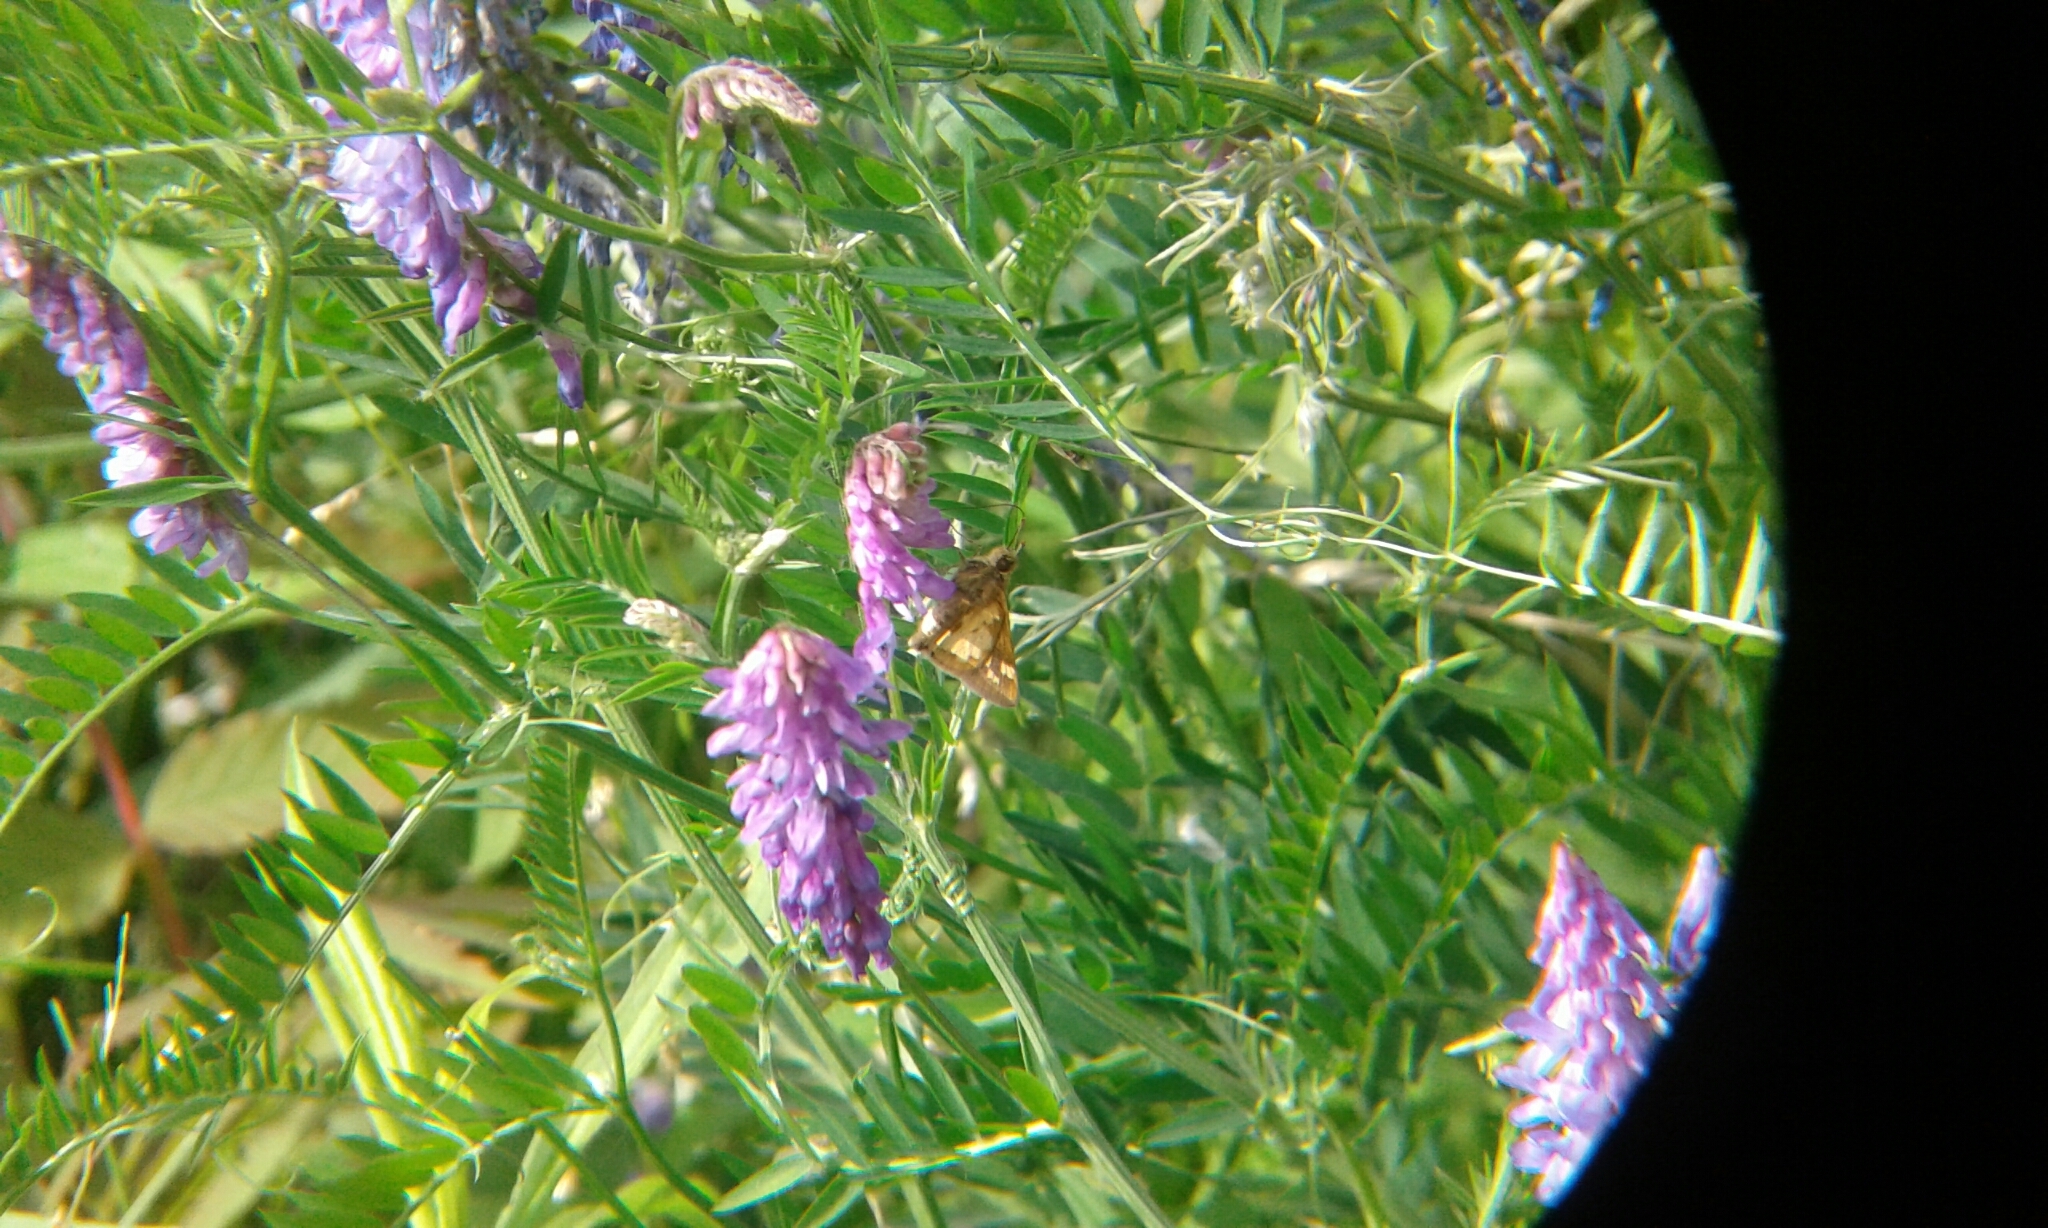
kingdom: Animalia
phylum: Arthropoda
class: Insecta
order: Lepidoptera
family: Hesperiidae
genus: Polites
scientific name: Polites coras
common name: Peck's skipper
